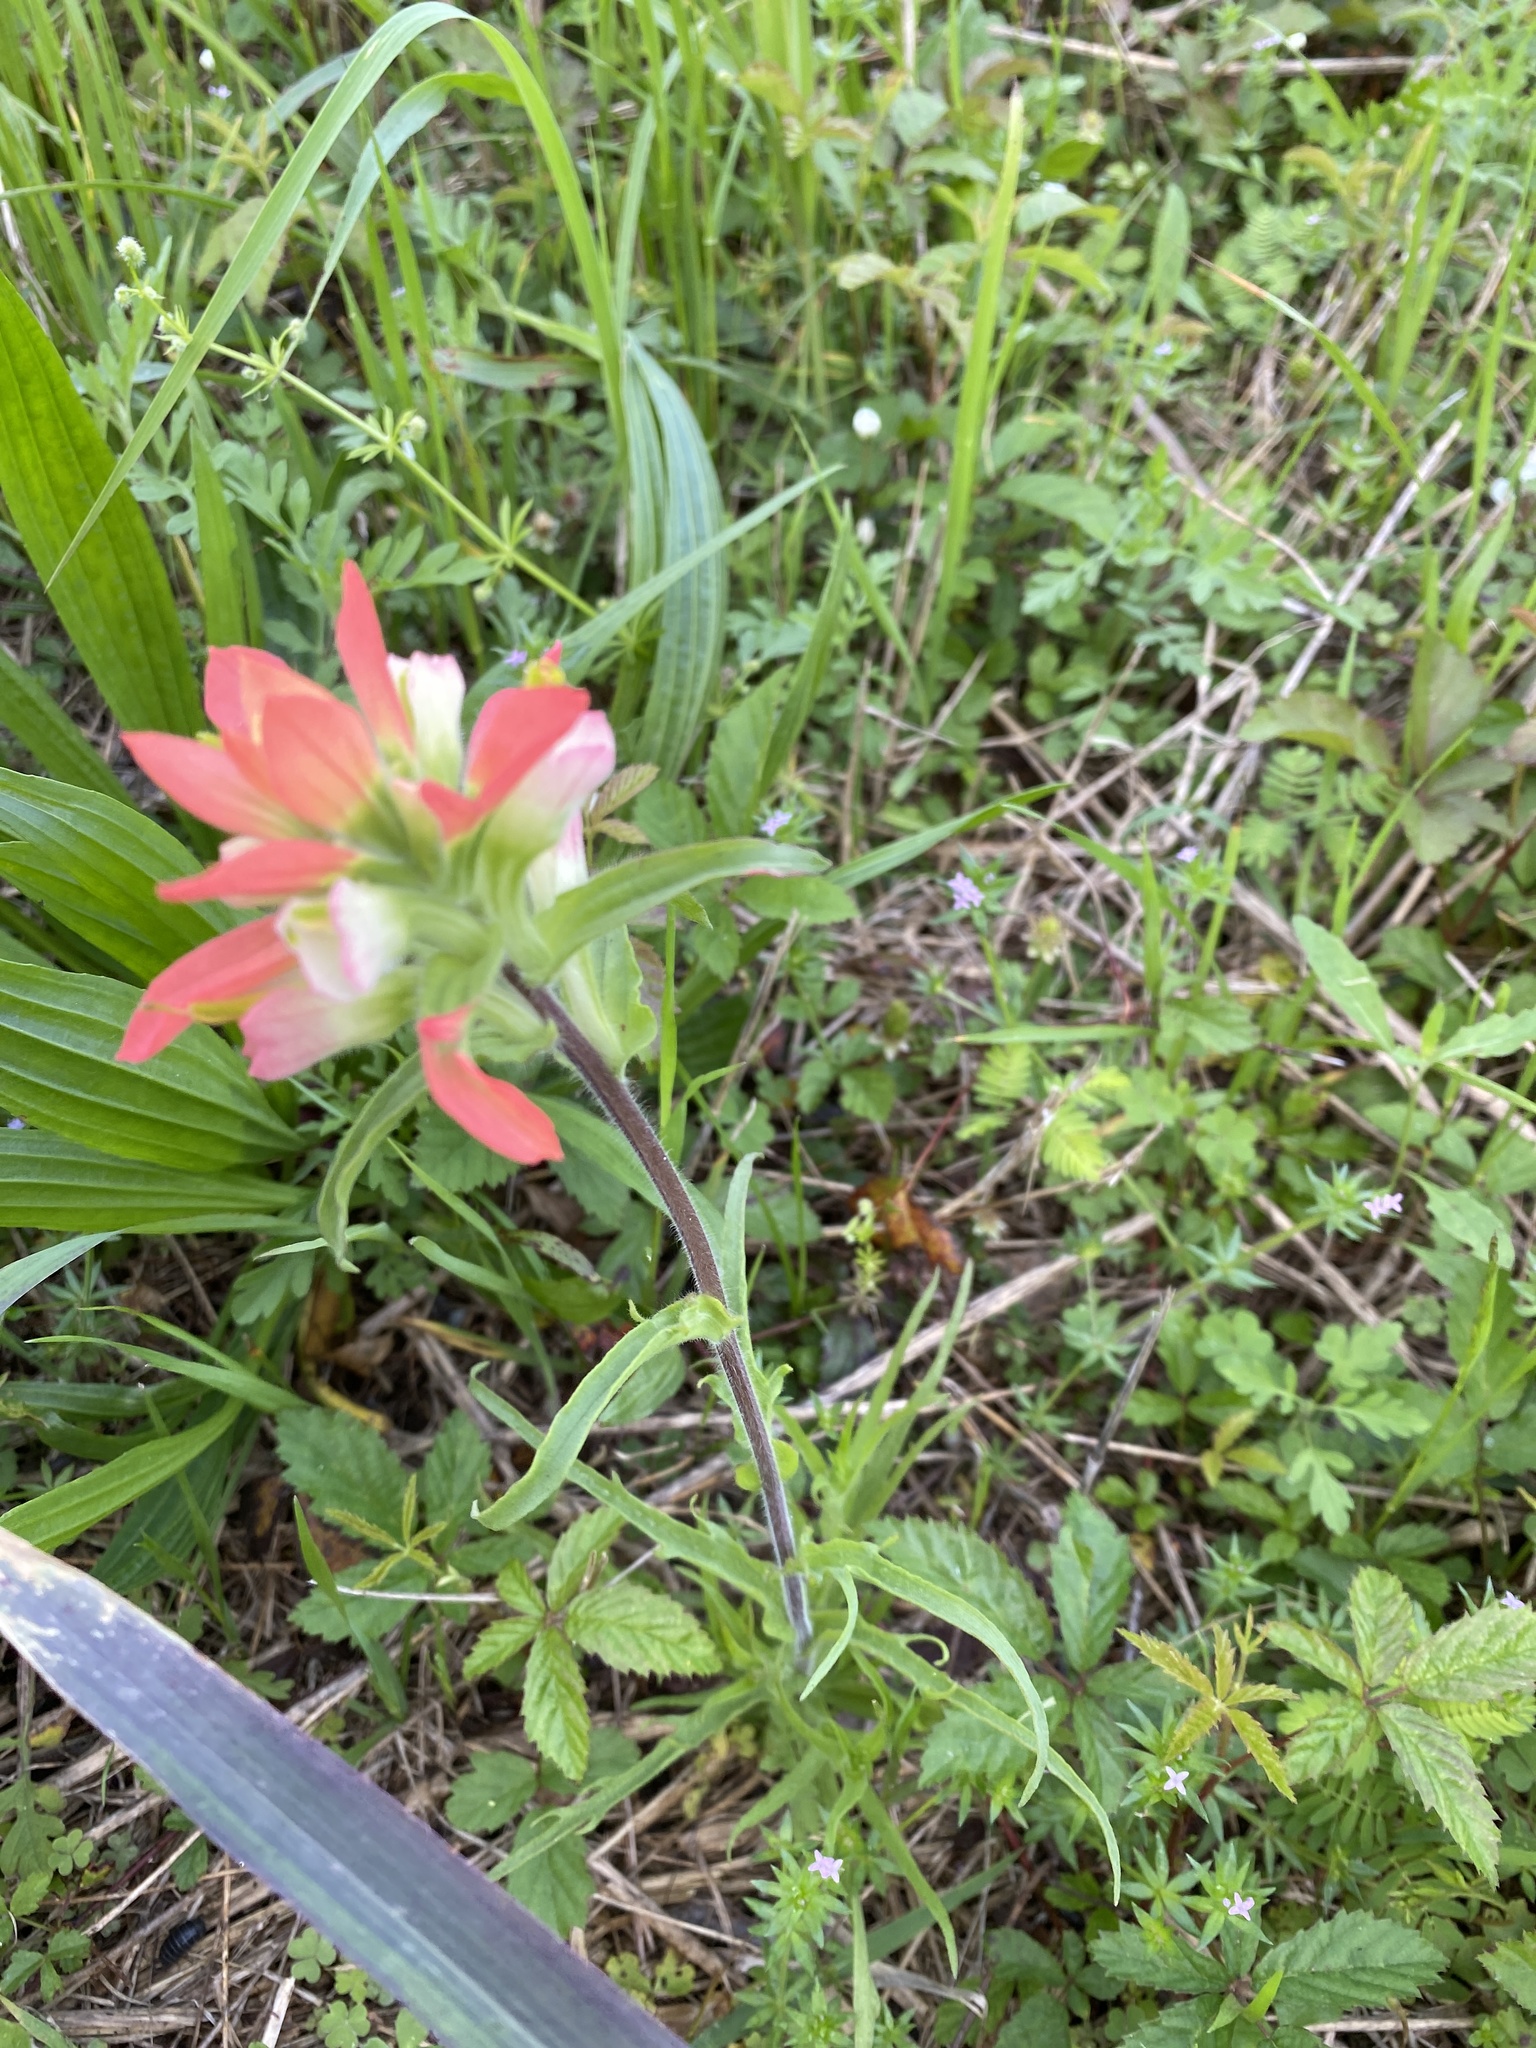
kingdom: Plantae
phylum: Tracheophyta
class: Magnoliopsida
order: Lamiales
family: Orobanchaceae
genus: Castilleja
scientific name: Castilleja indivisa
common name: Texas paintbrush
